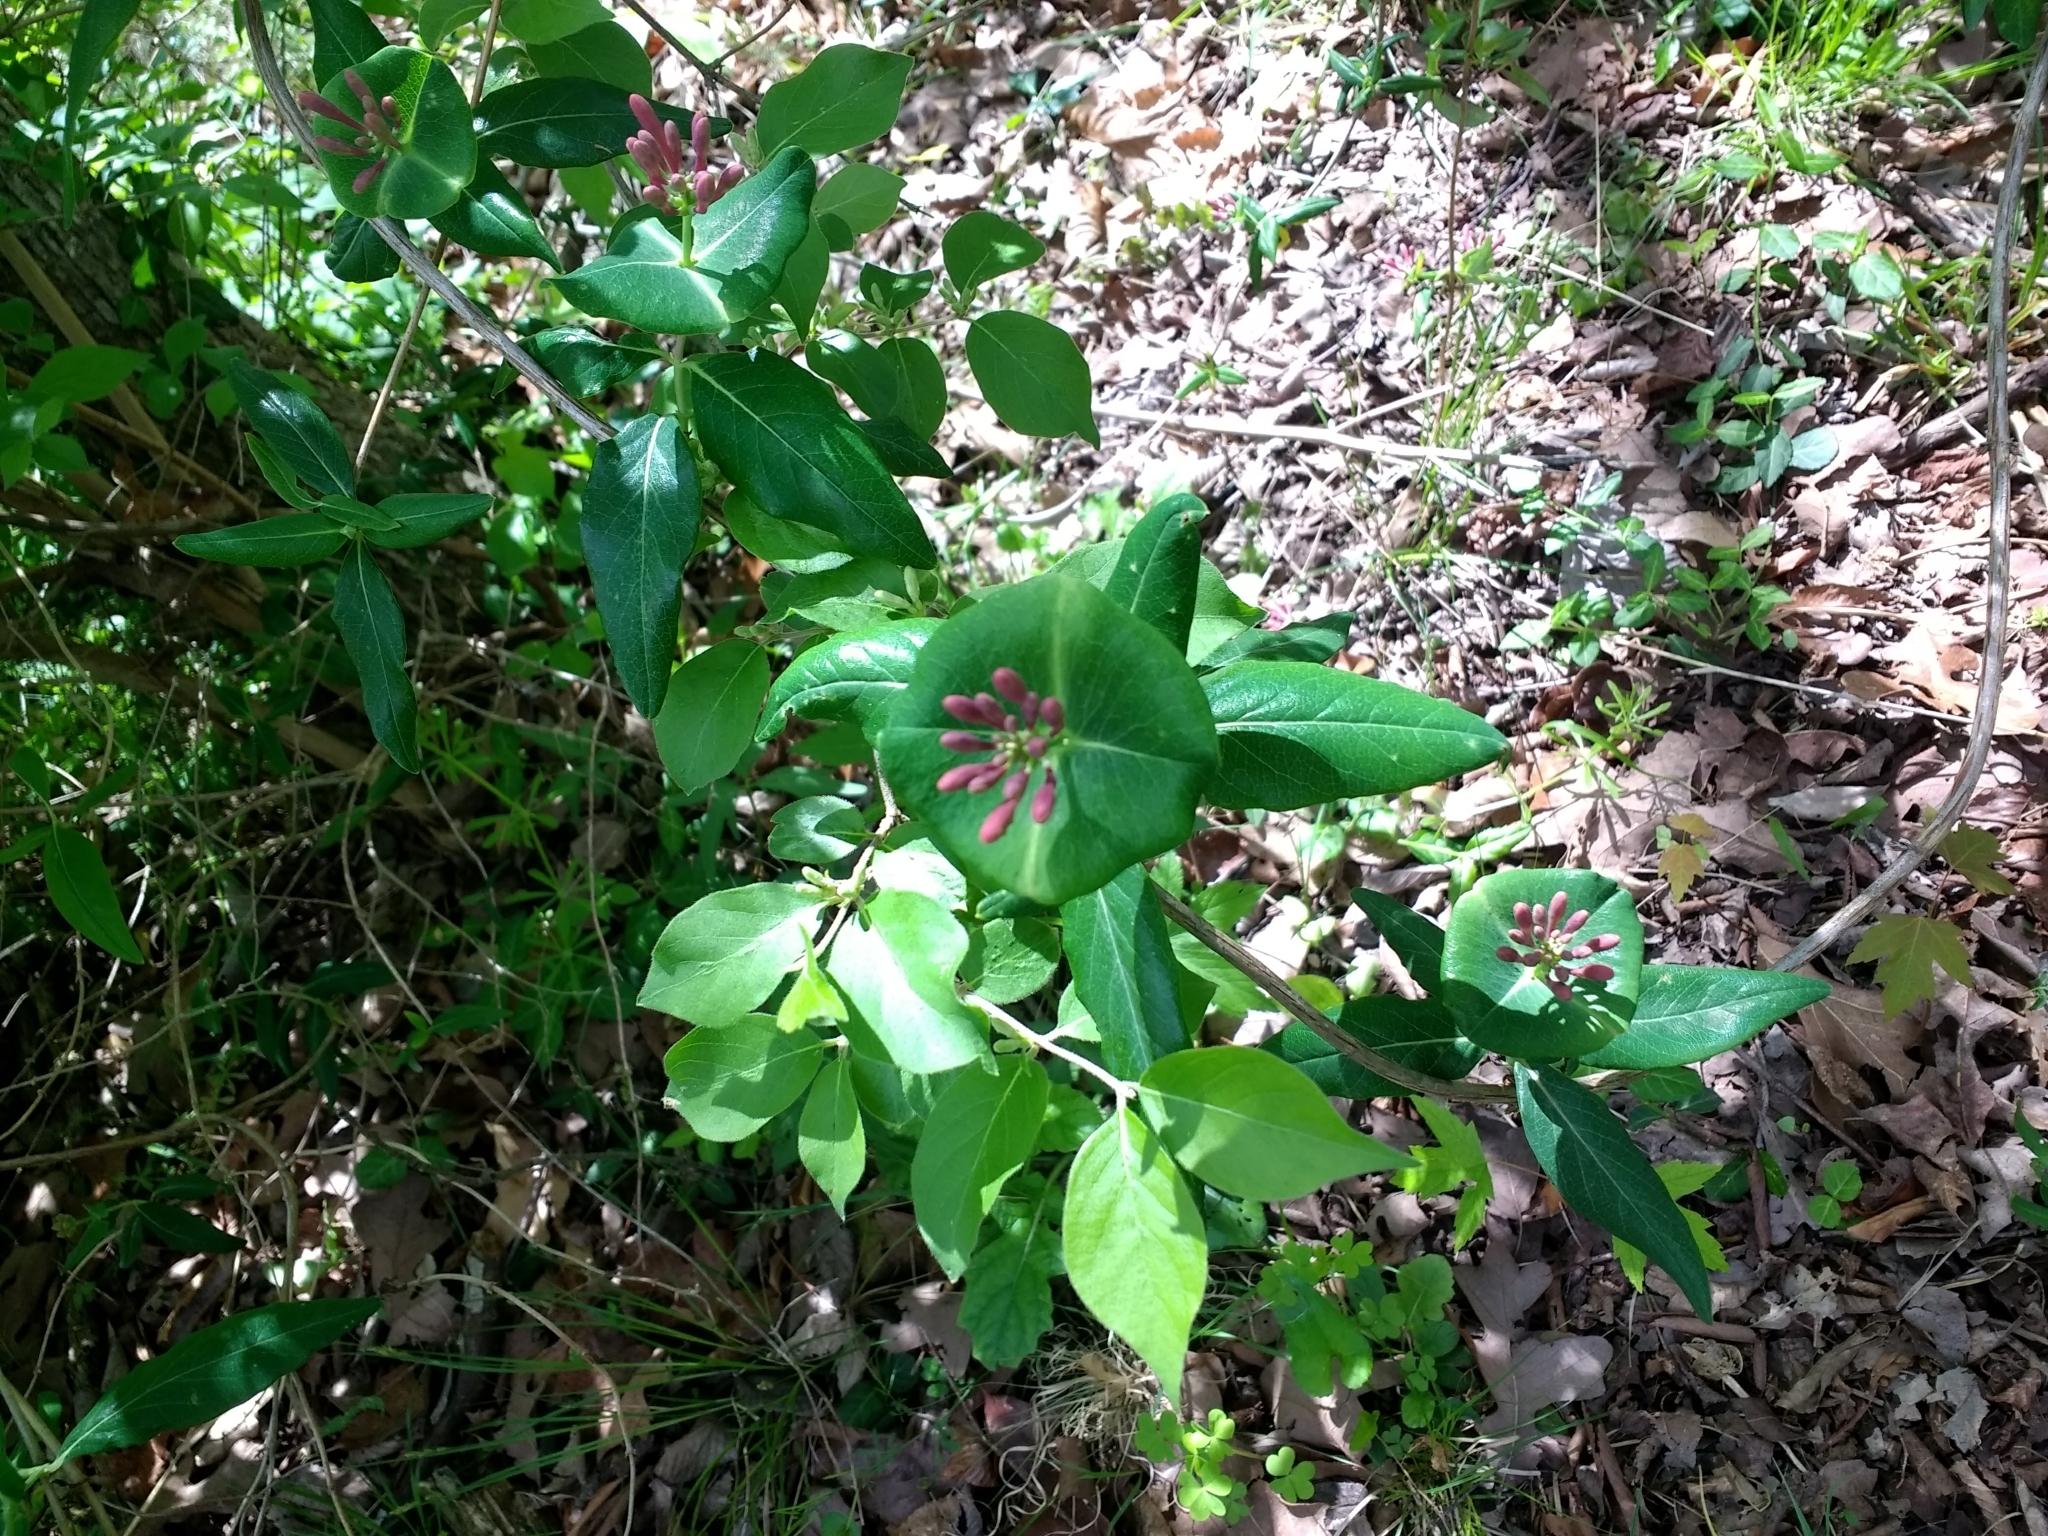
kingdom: Plantae
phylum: Tracheophyta
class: Magnoliopsida
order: Dipsacales
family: Caprifoliaceae
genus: Lonicera
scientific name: Lonicera sempervirens
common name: Coral honeysuckle
